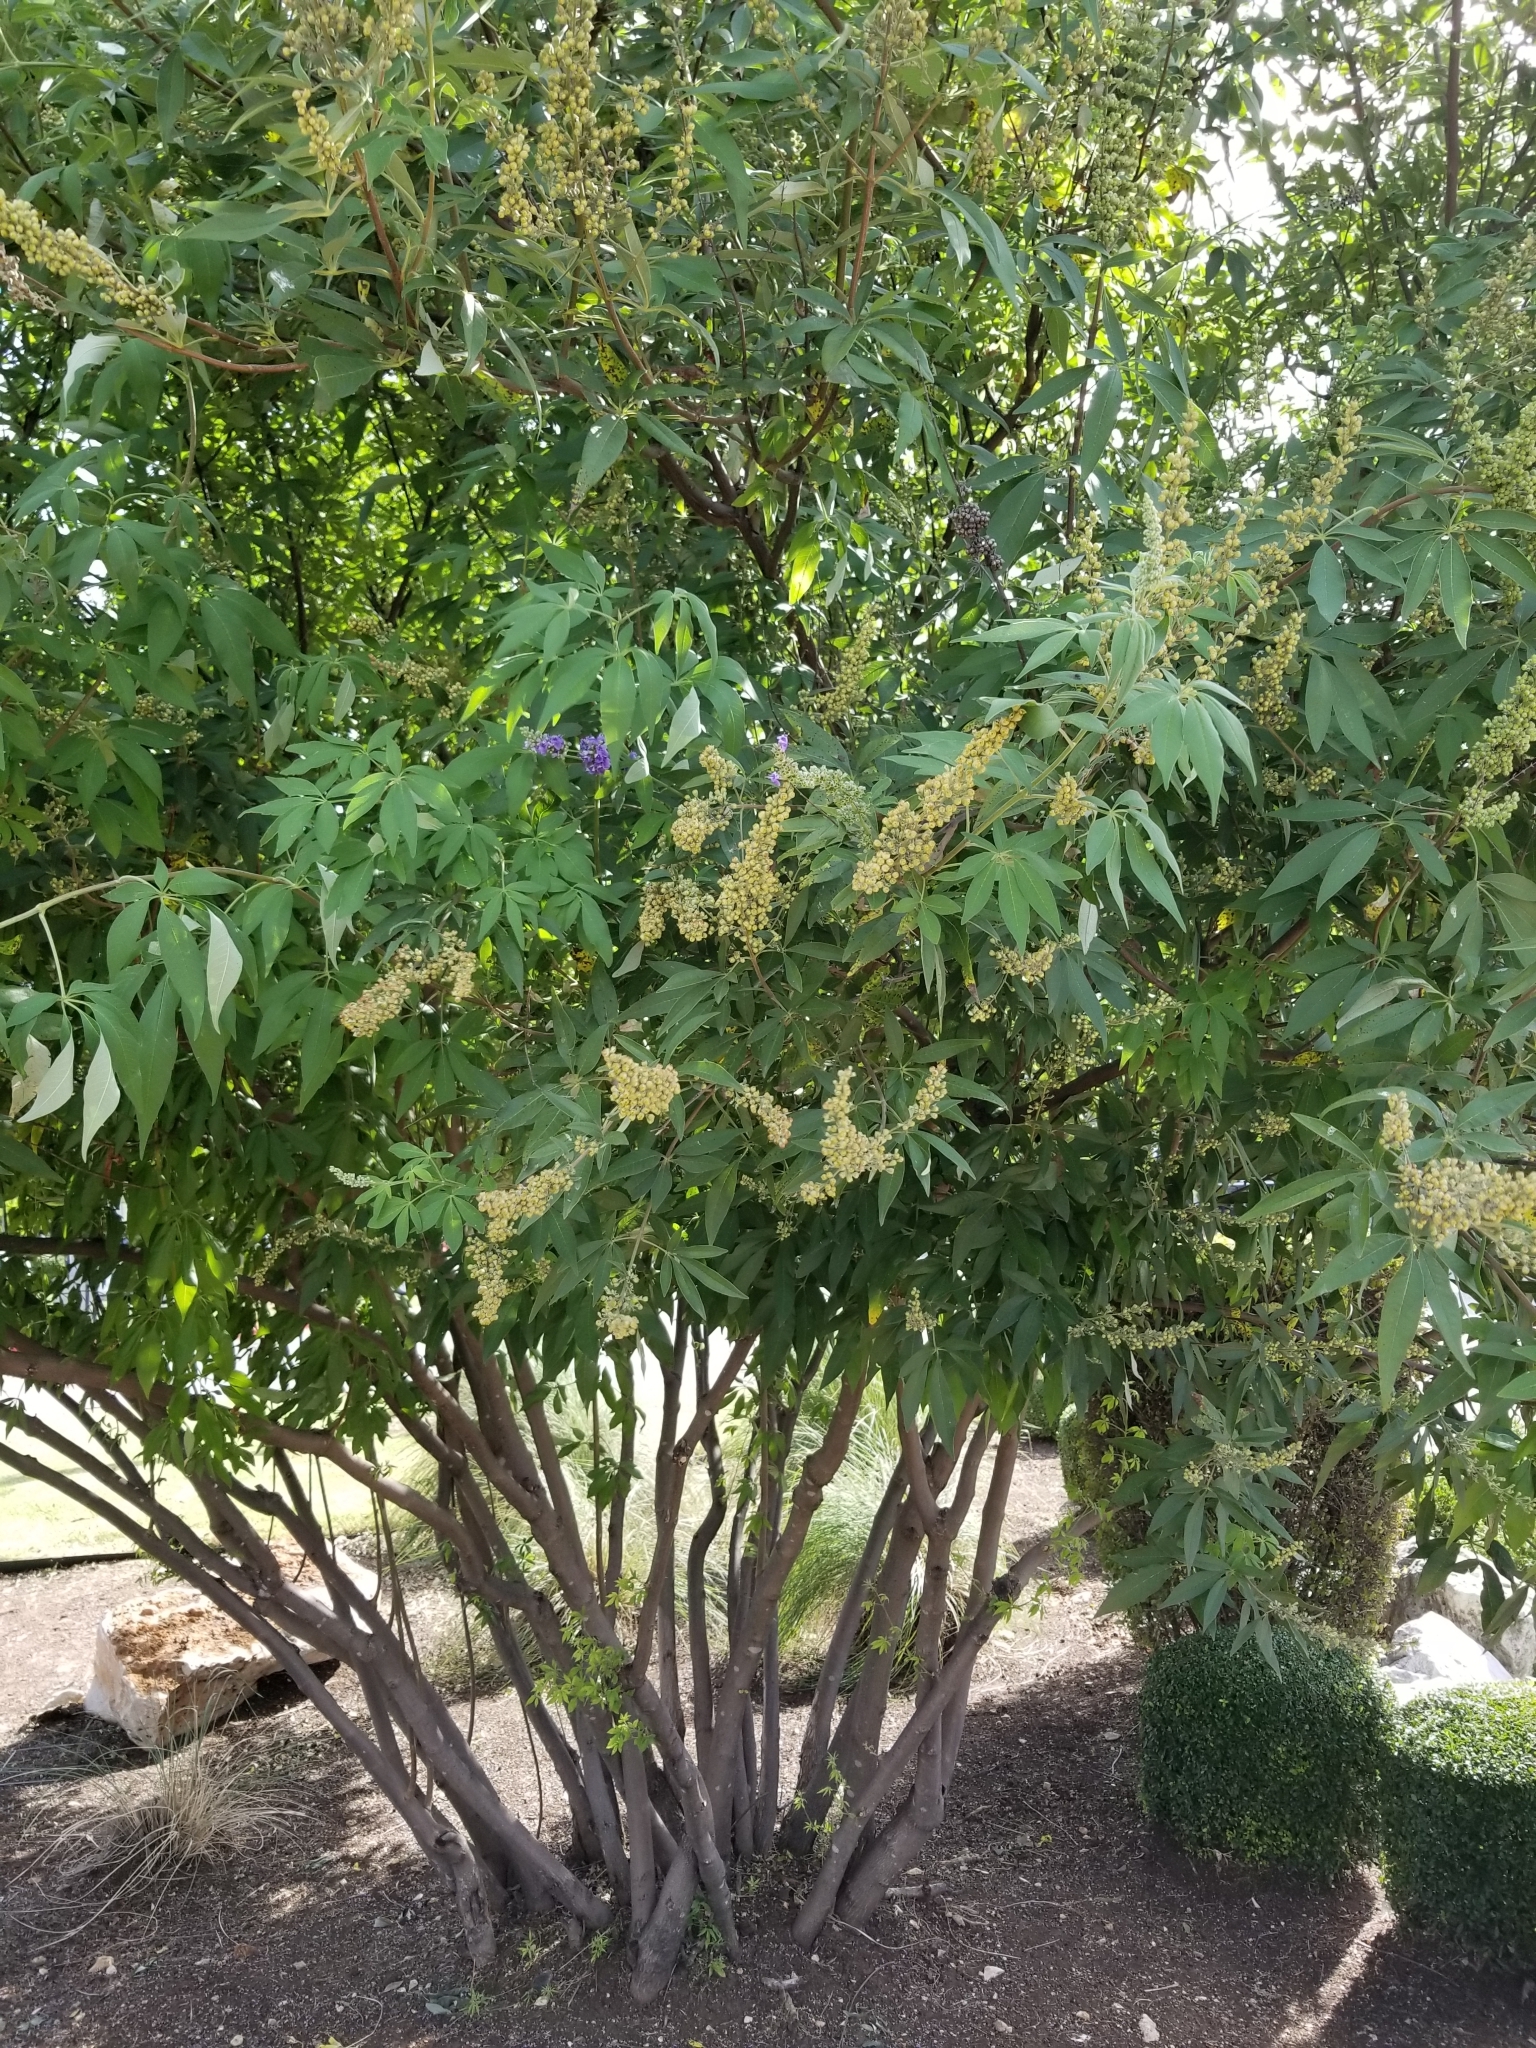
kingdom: Plantae
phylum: Tracheophyta
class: Magnoliopsida
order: Lamiales
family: Lamiaceae
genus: Vitex
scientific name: Vitex agnus-castus
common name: Chasteberry
